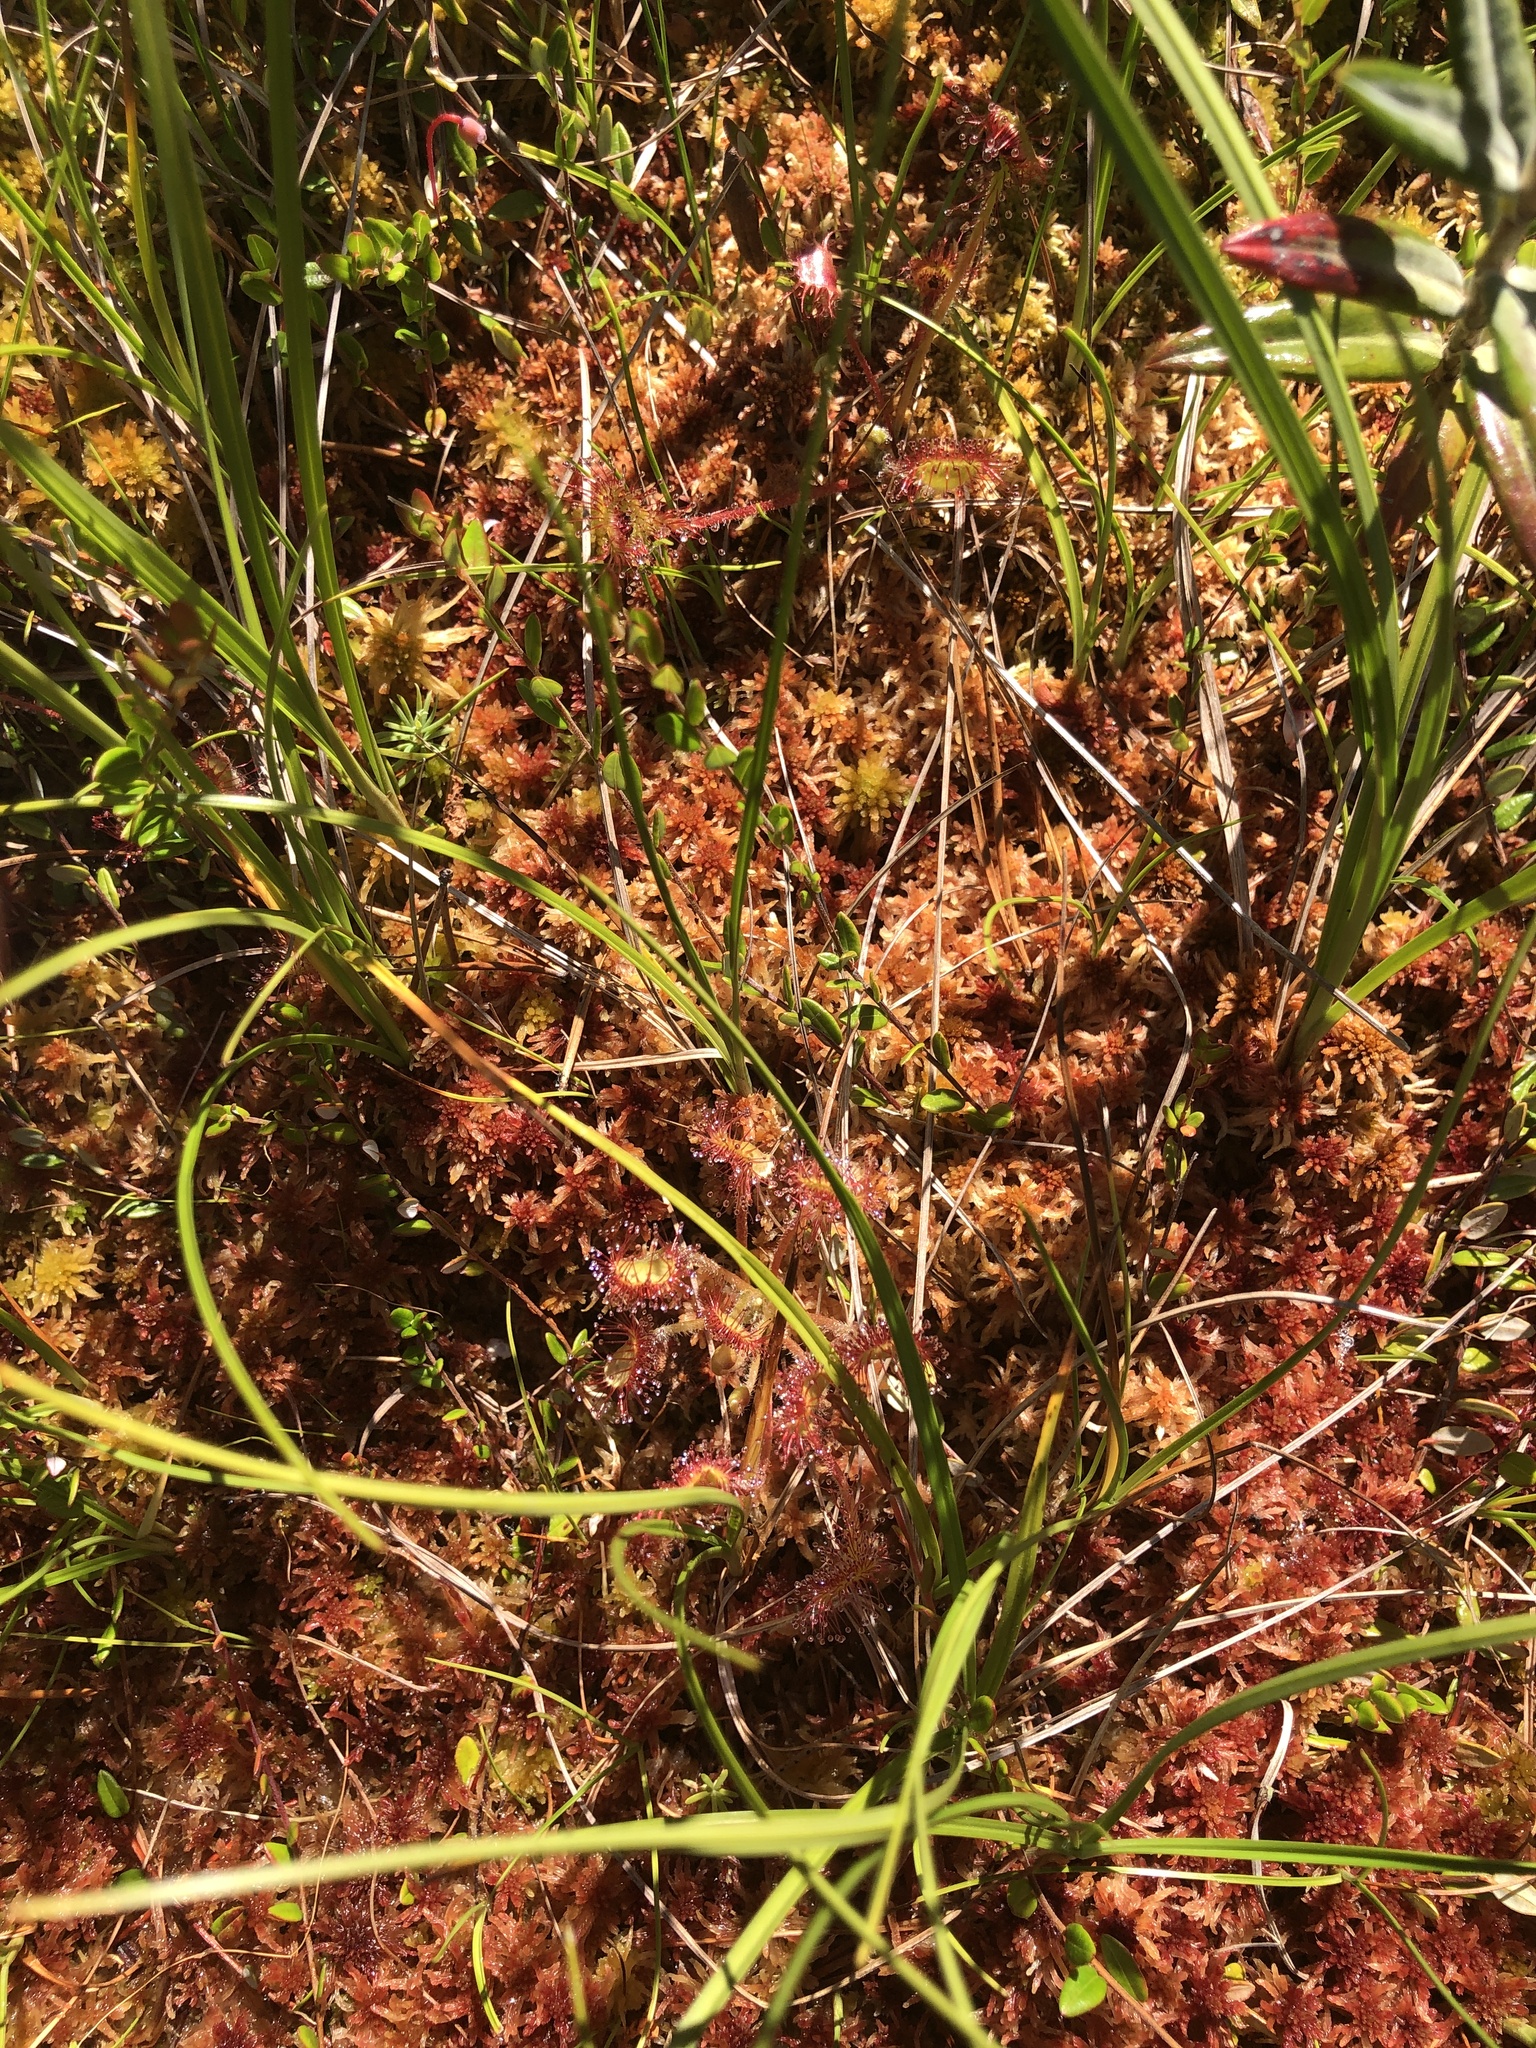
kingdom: Plantae
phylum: Tracheophyta
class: Magnoliopsida
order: Caryophyllales
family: Droseraceae
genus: Drosera
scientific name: Drosera rotundifolia
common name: Round-leaved sundew
